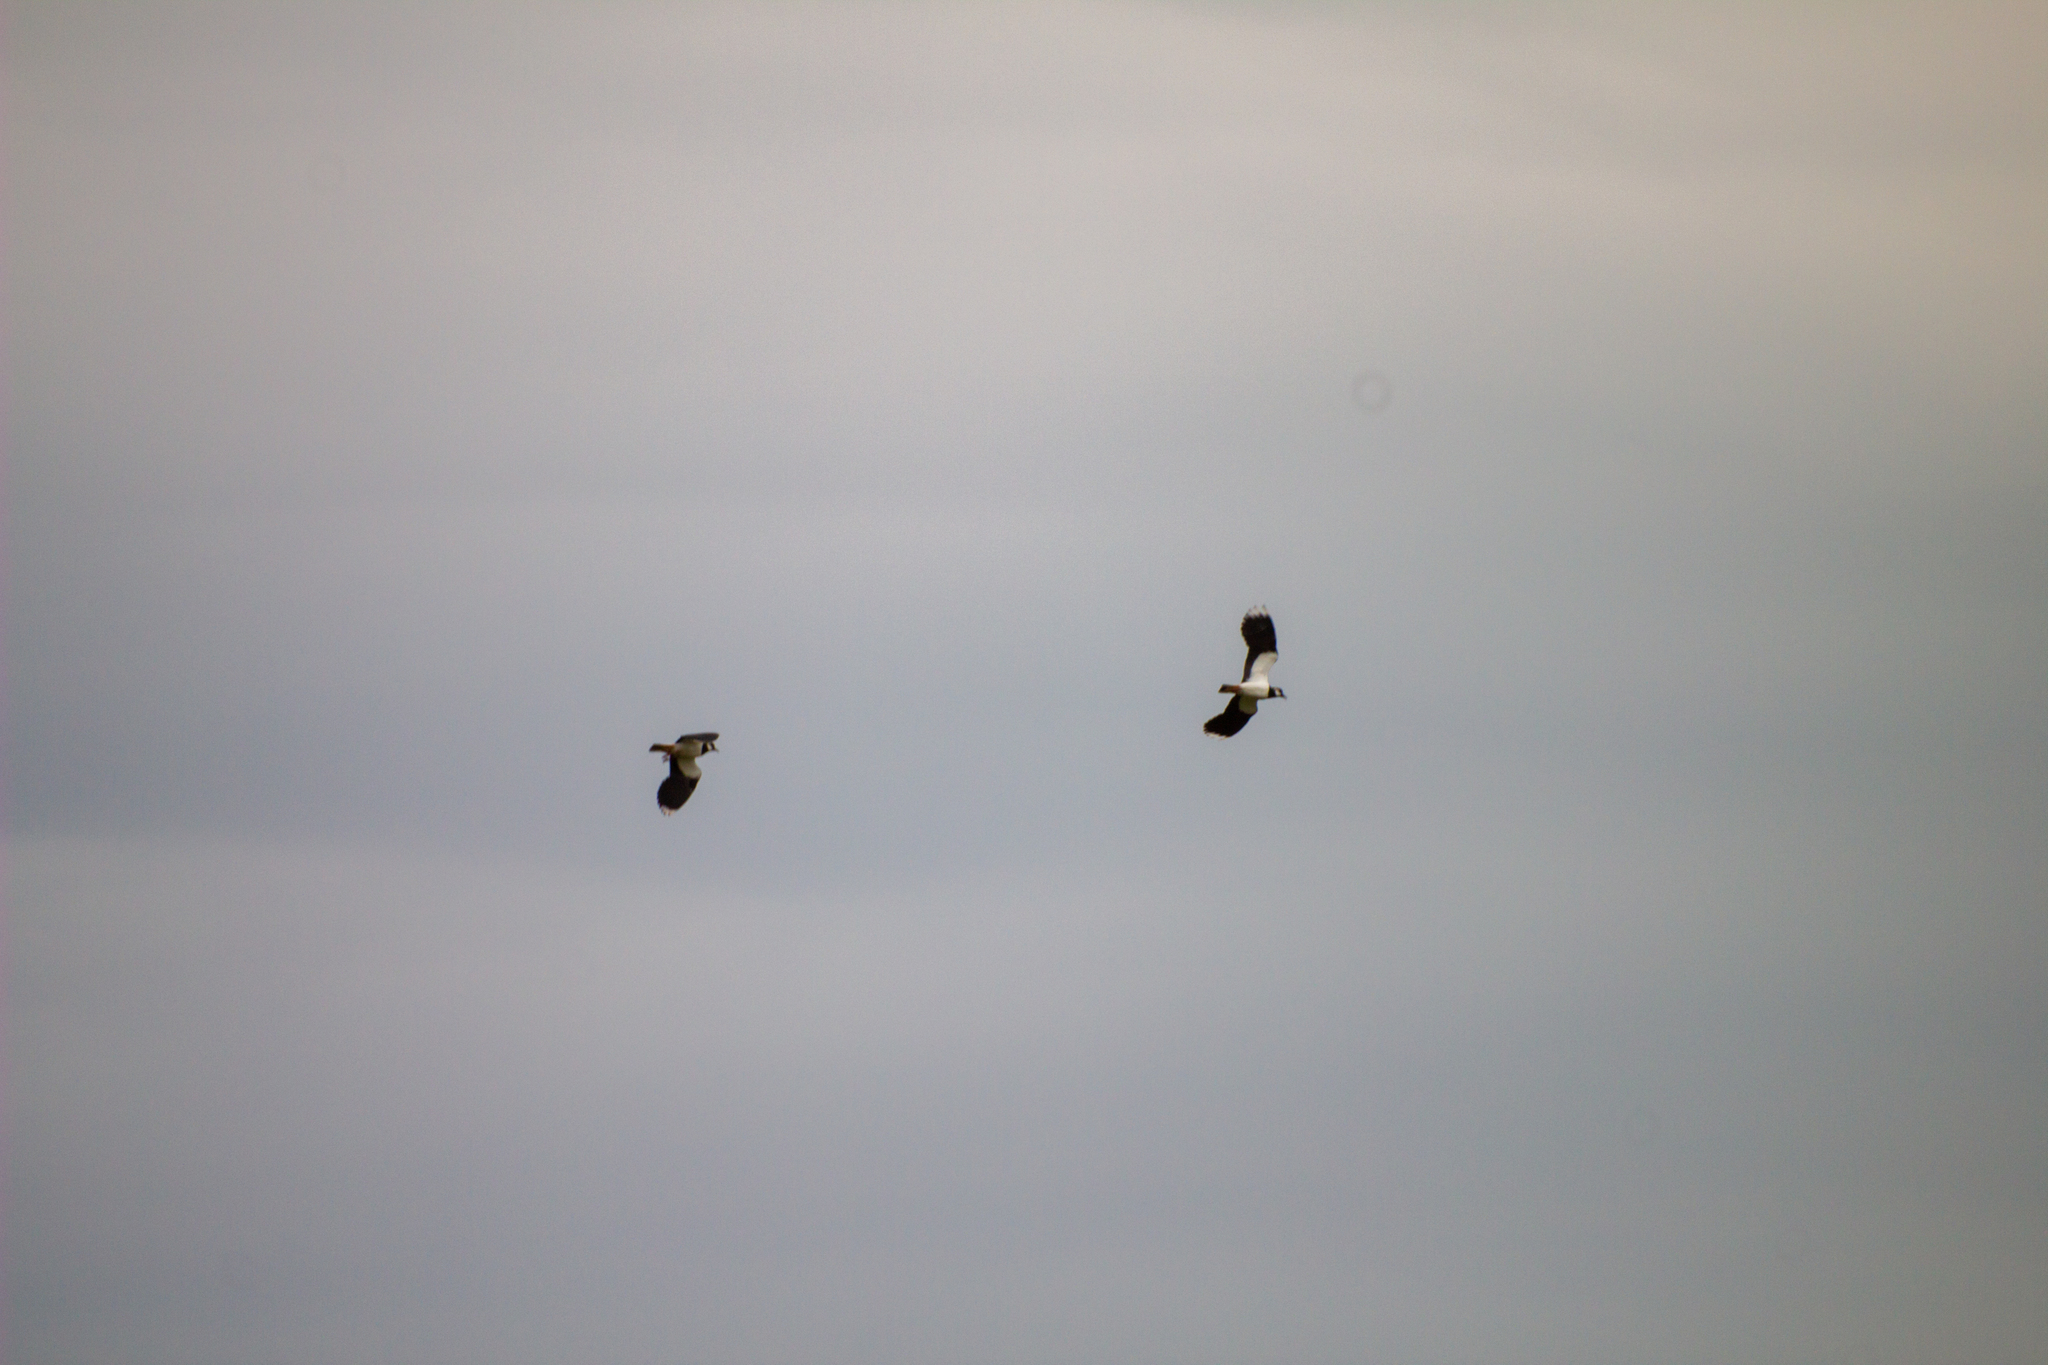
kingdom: Animalia
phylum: Chordata
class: Aves
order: Charadriiformes
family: Charadriidae
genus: Vanellus
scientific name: Vanellus vanellus
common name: Northern lapwing
